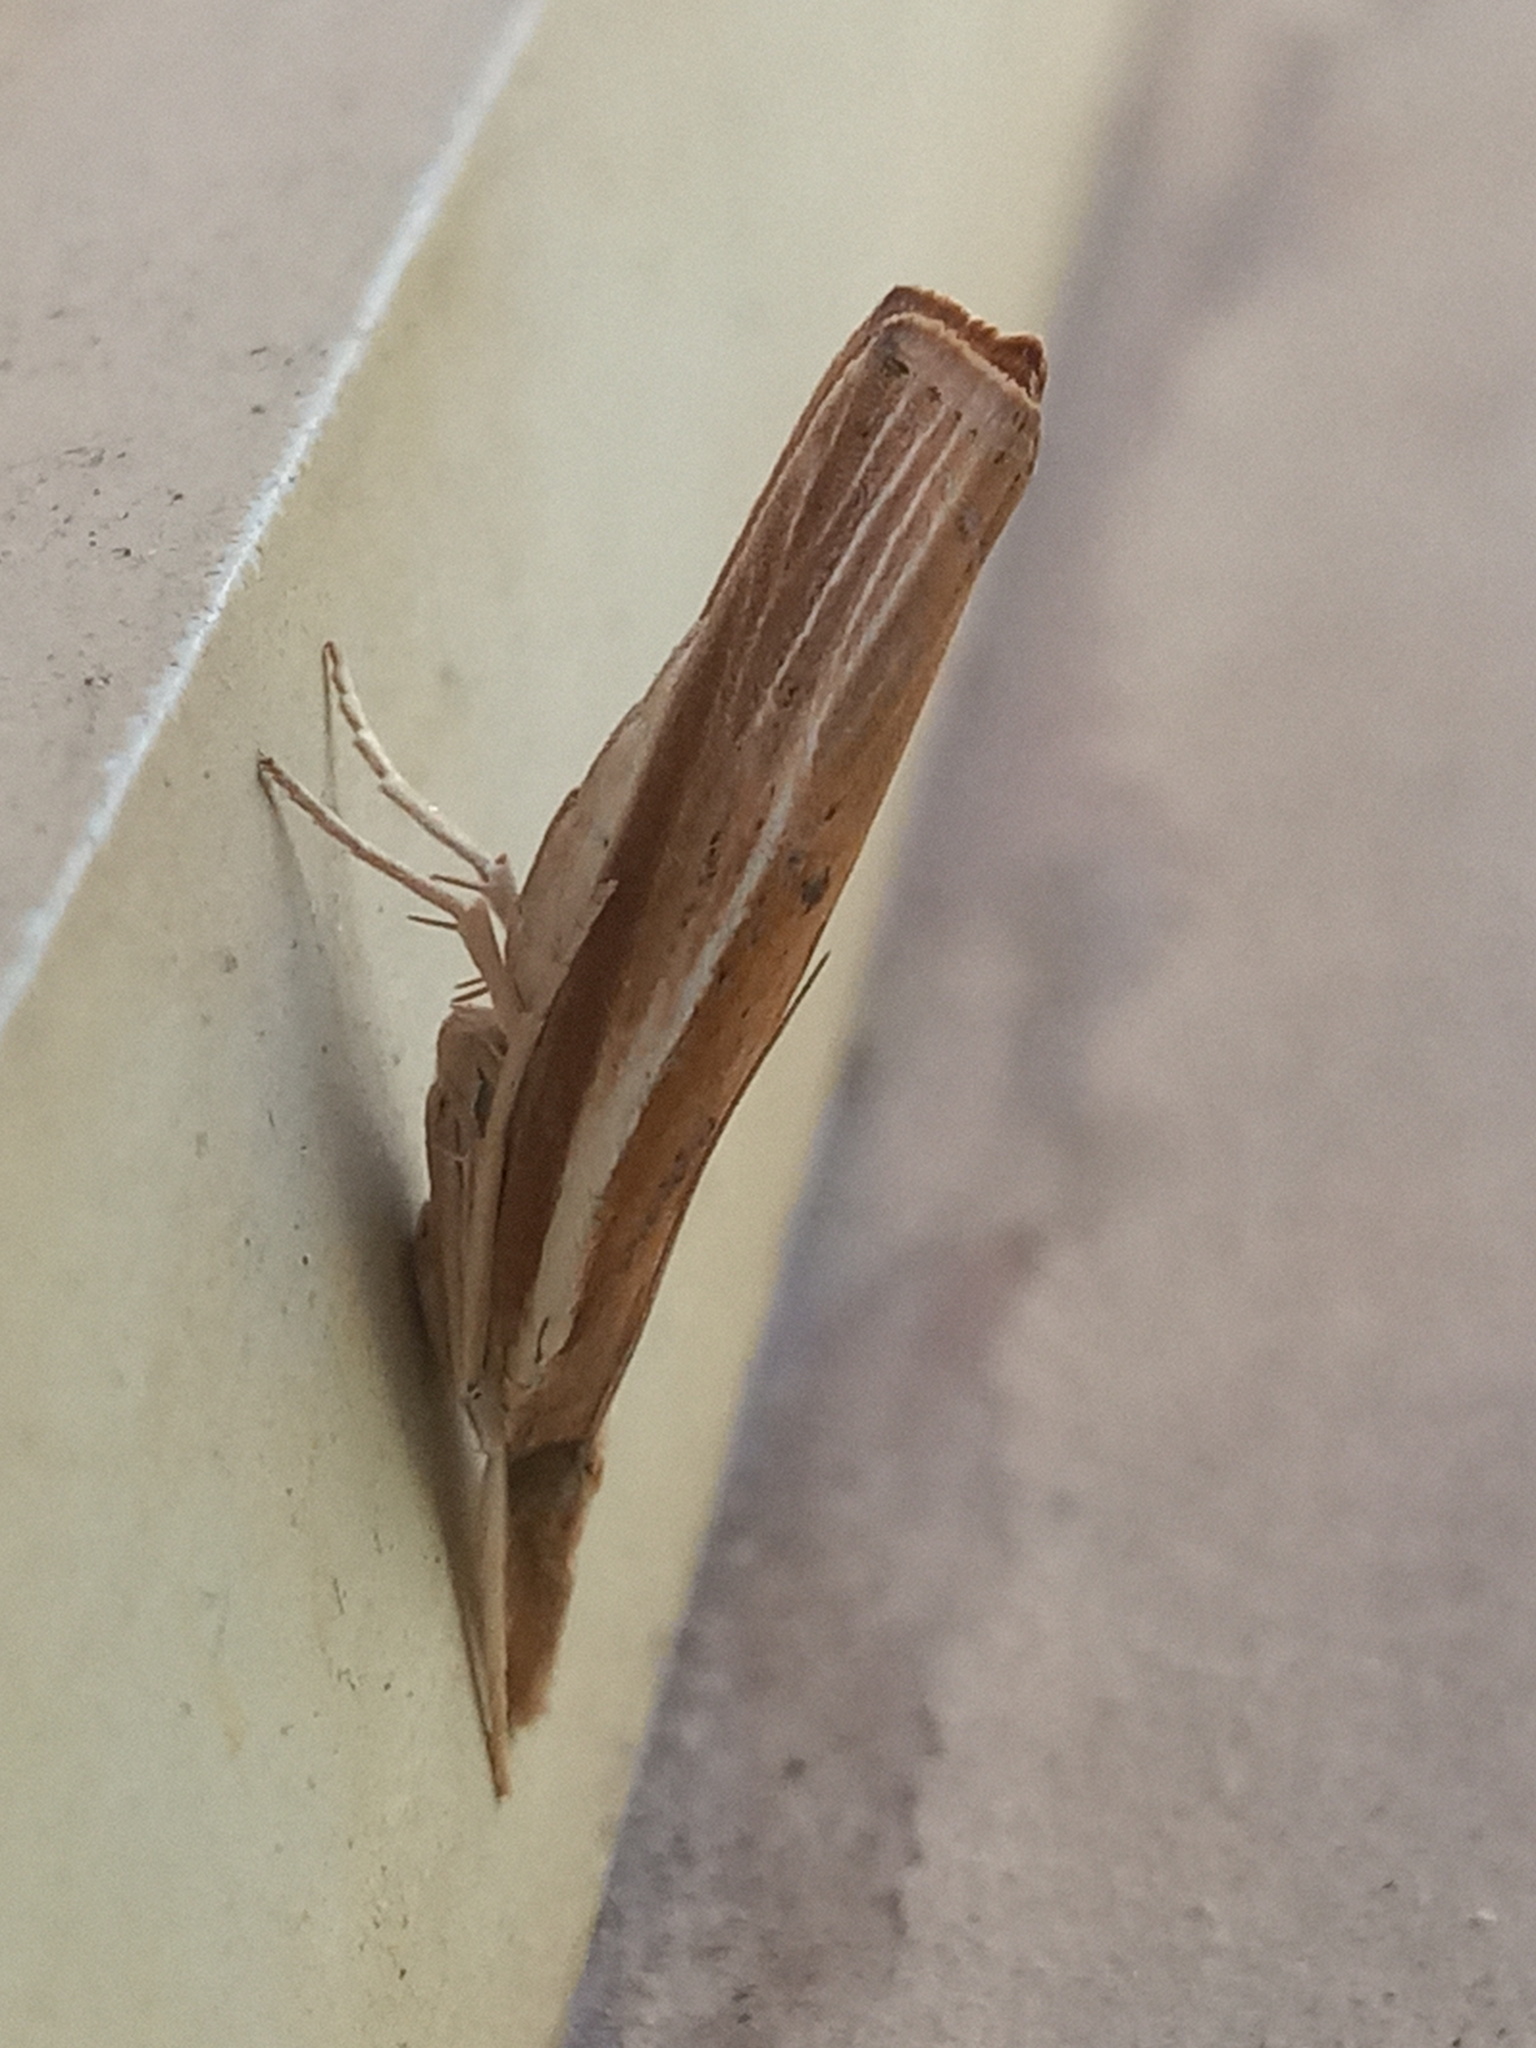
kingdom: Animalia
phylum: Arthropoda
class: Insecta
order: Lepidoptera
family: Crambidae
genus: Fissicrambus
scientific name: Fissicrambus fissiradiellus
